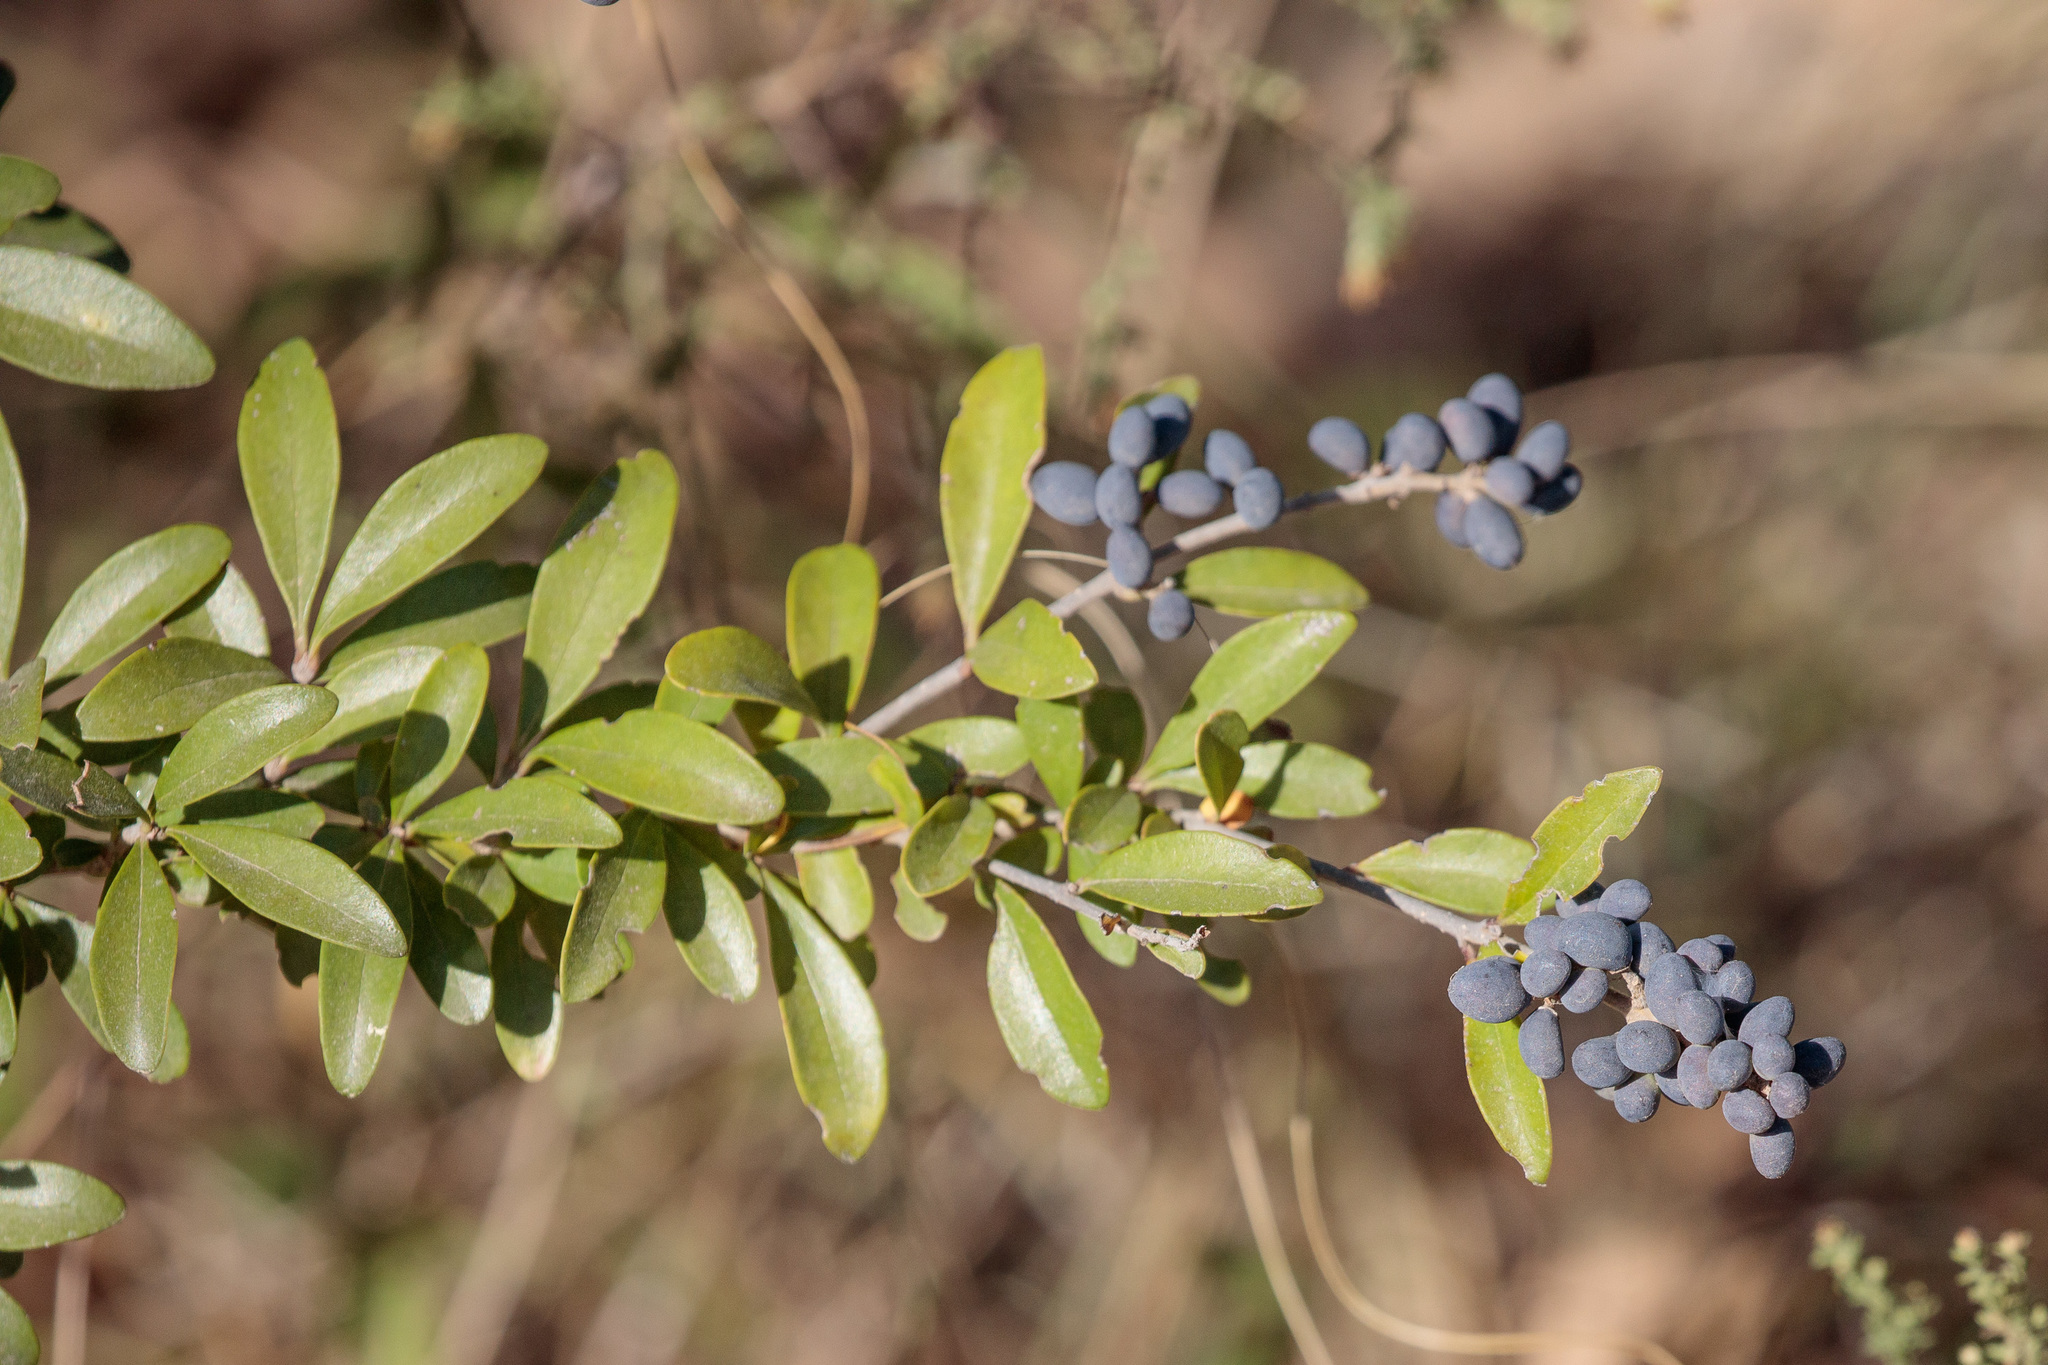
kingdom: Plantae
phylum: Tracheophyta
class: Magnoliopsida
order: Lamiales
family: Oleaceae
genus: Ligustrum
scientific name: Ligustrum quihoui
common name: Waxyleaf privet
